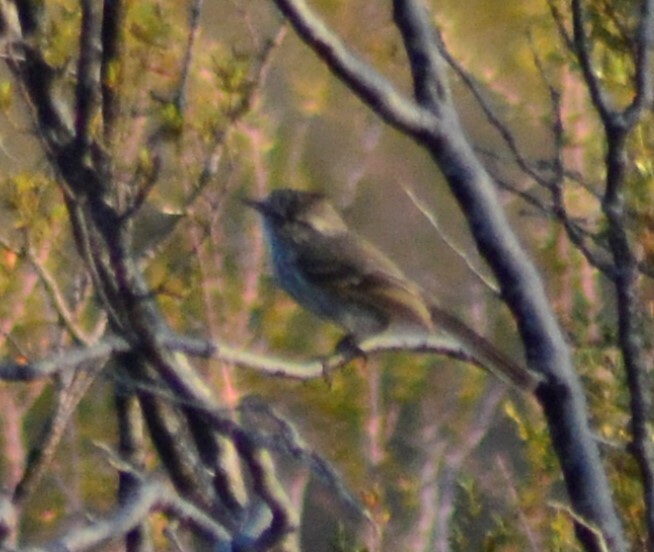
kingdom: Animalia
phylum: Chordata
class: Aves
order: Passeriformes
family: Tyrannidae
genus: Anairetes
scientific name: Anairetes parulus
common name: Tufted tit-tyrant
